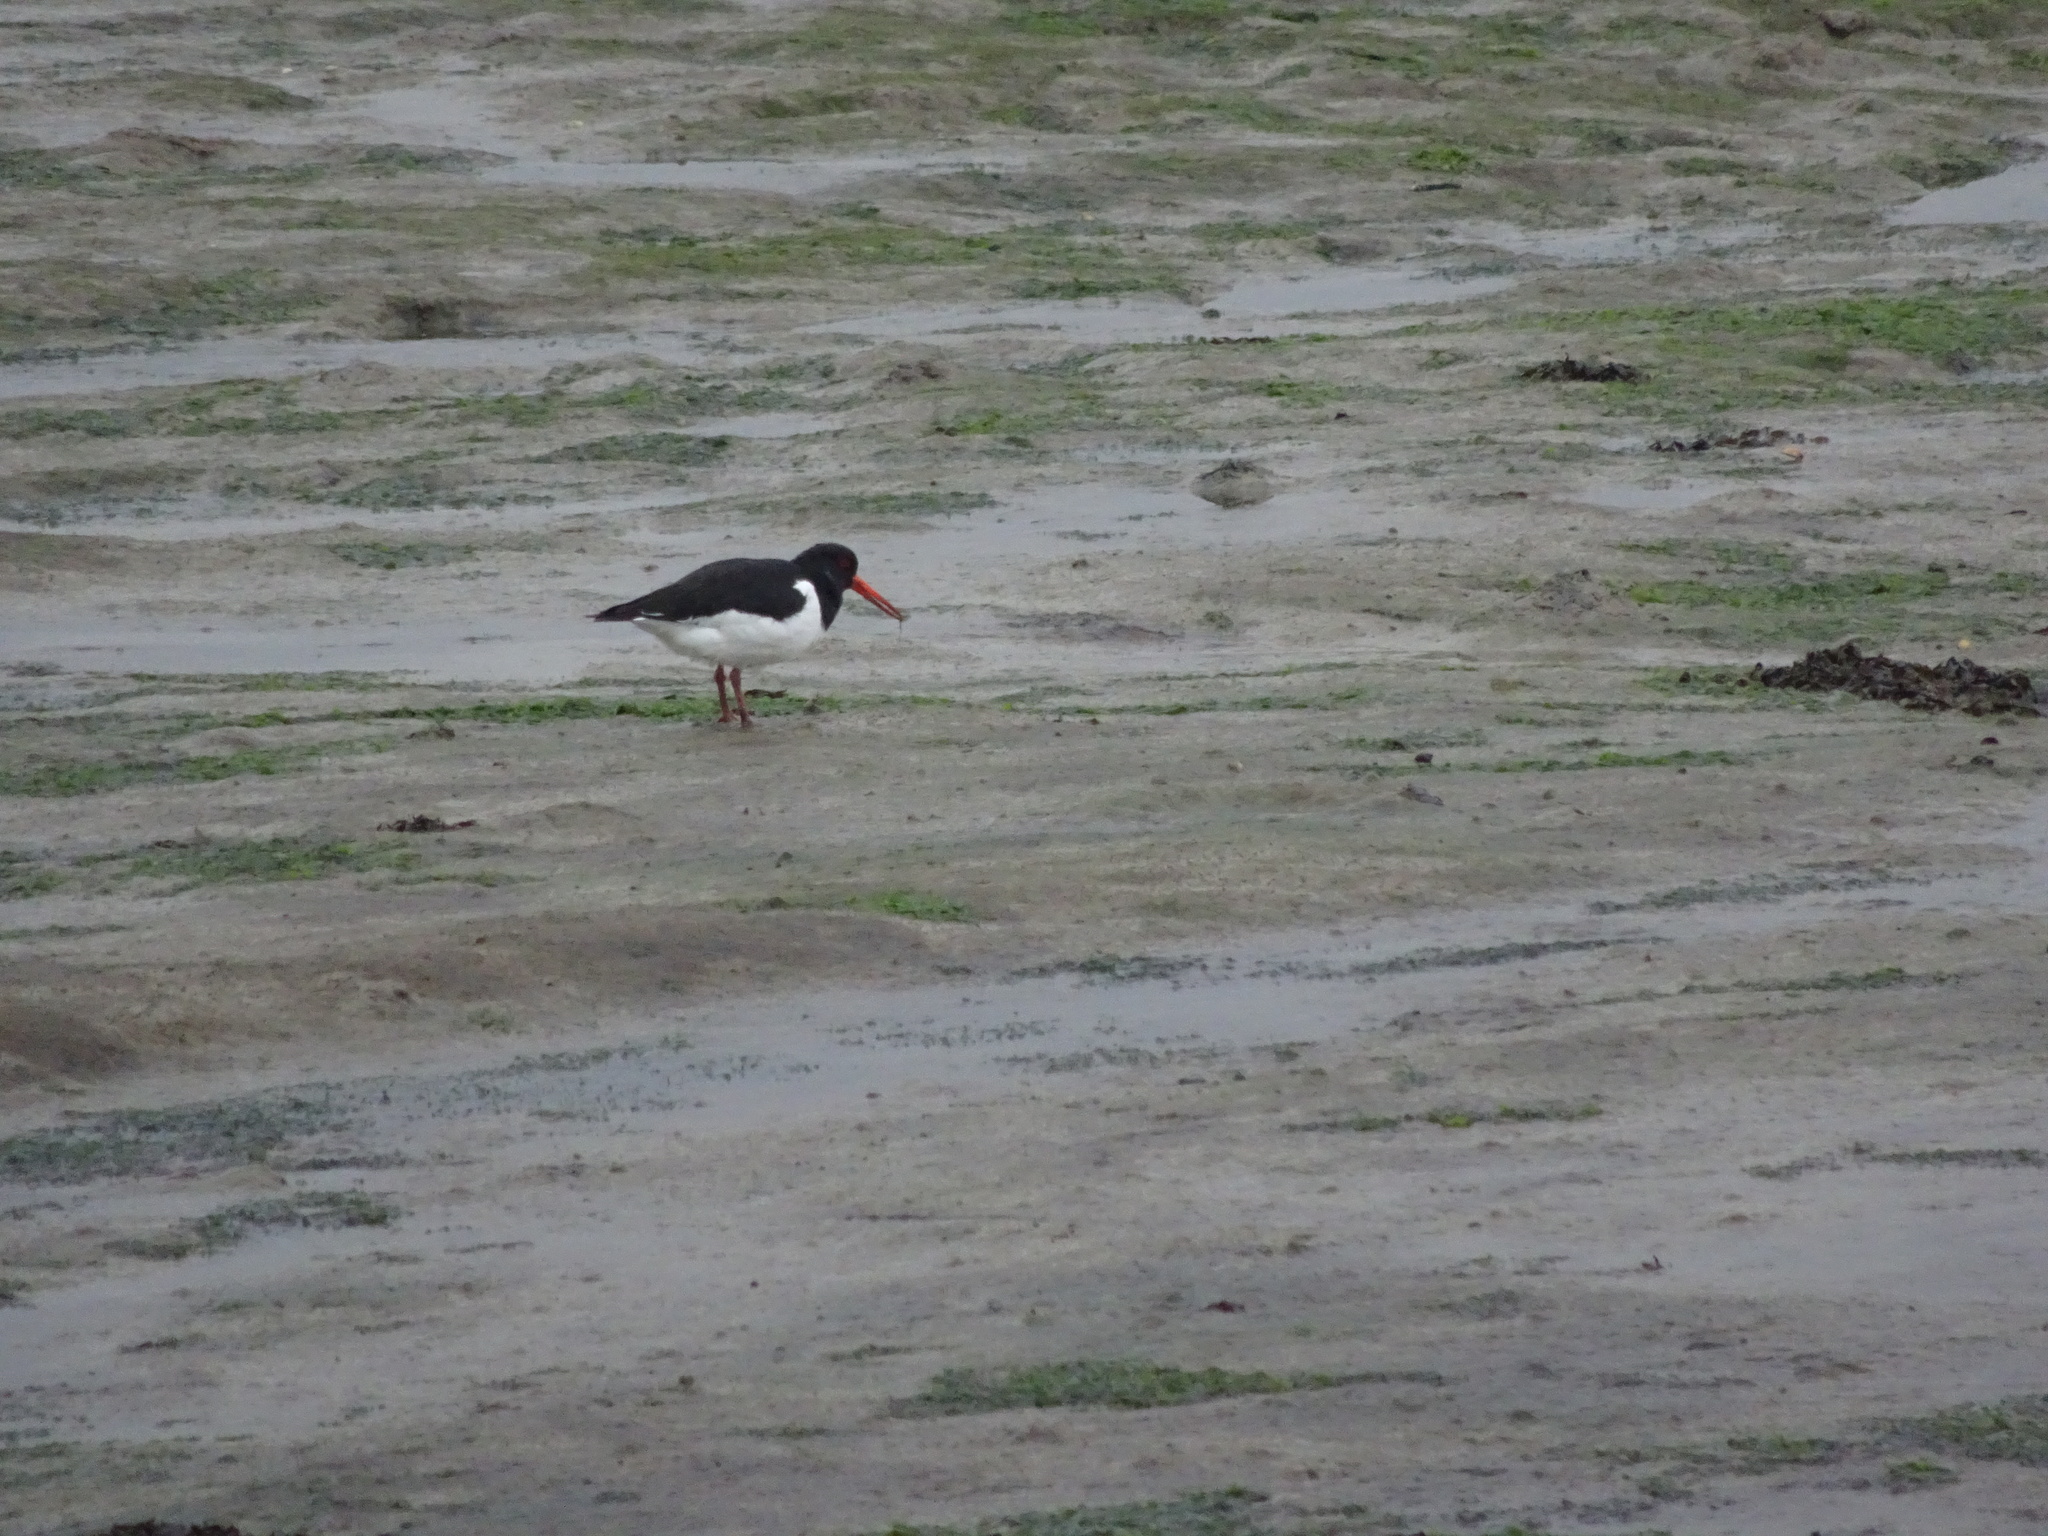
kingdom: Animalia
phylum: Chordata
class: Aves
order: Charadriiformes
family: Haematopodidae
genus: Haematopus
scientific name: Haematopus ostralegus
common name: Eurasian oystercatcher
